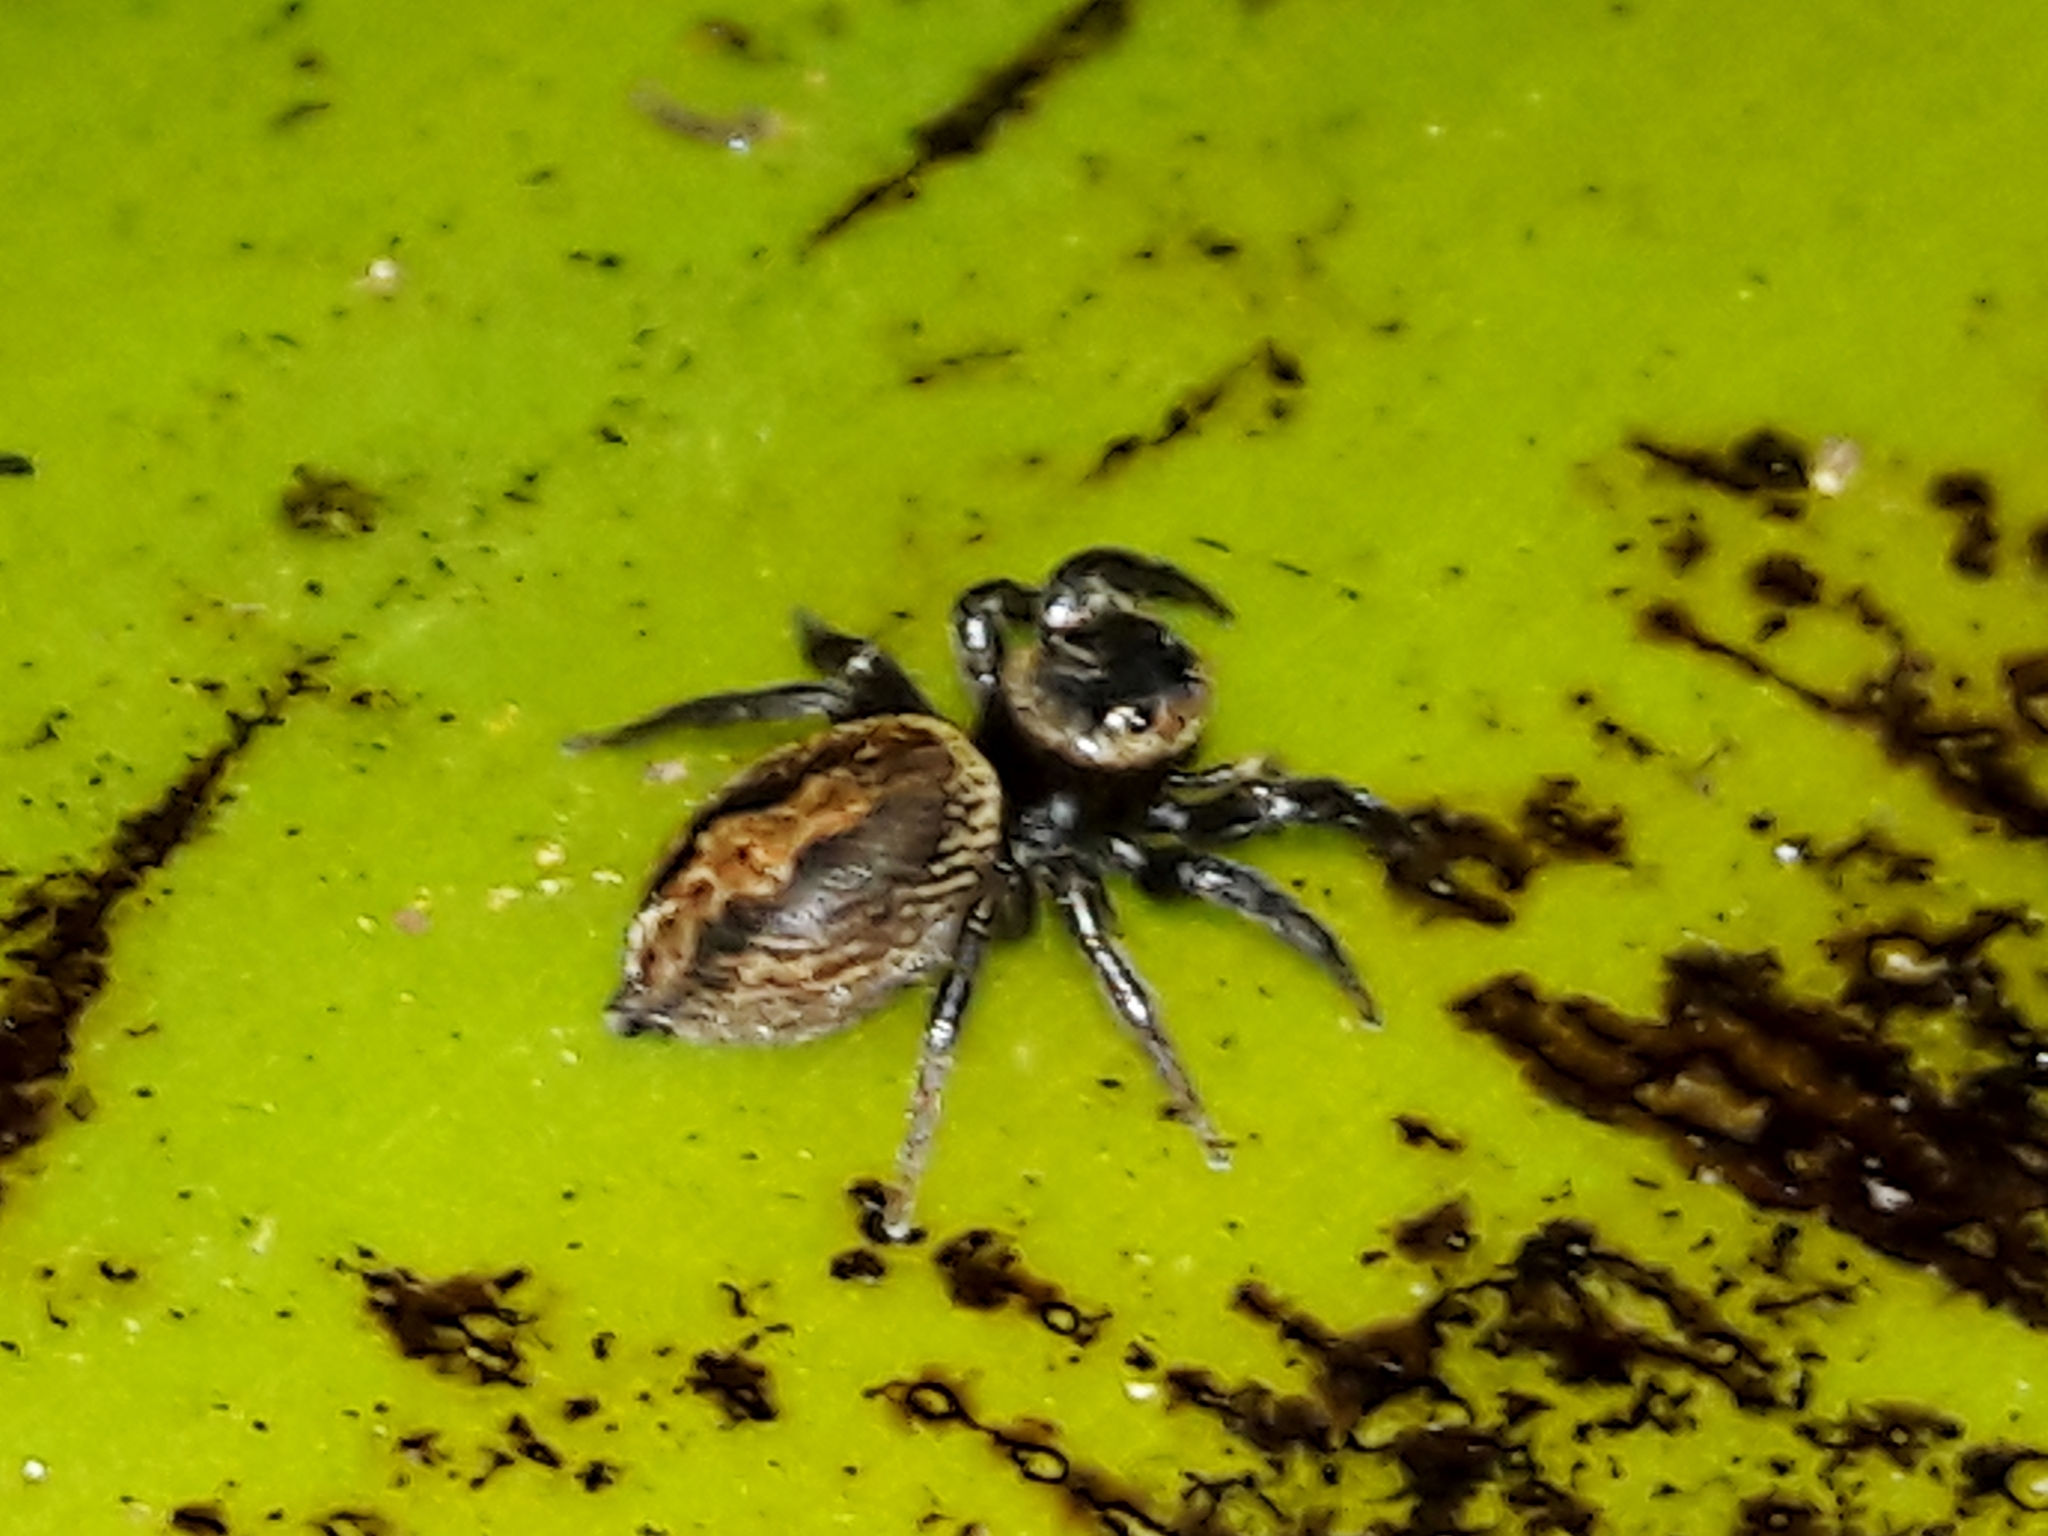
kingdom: Animalia
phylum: Arthropoda
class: Arachnida
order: Araneae
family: Salticidae
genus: Hasarius
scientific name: Hasarius adansoni
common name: Jumping spider
